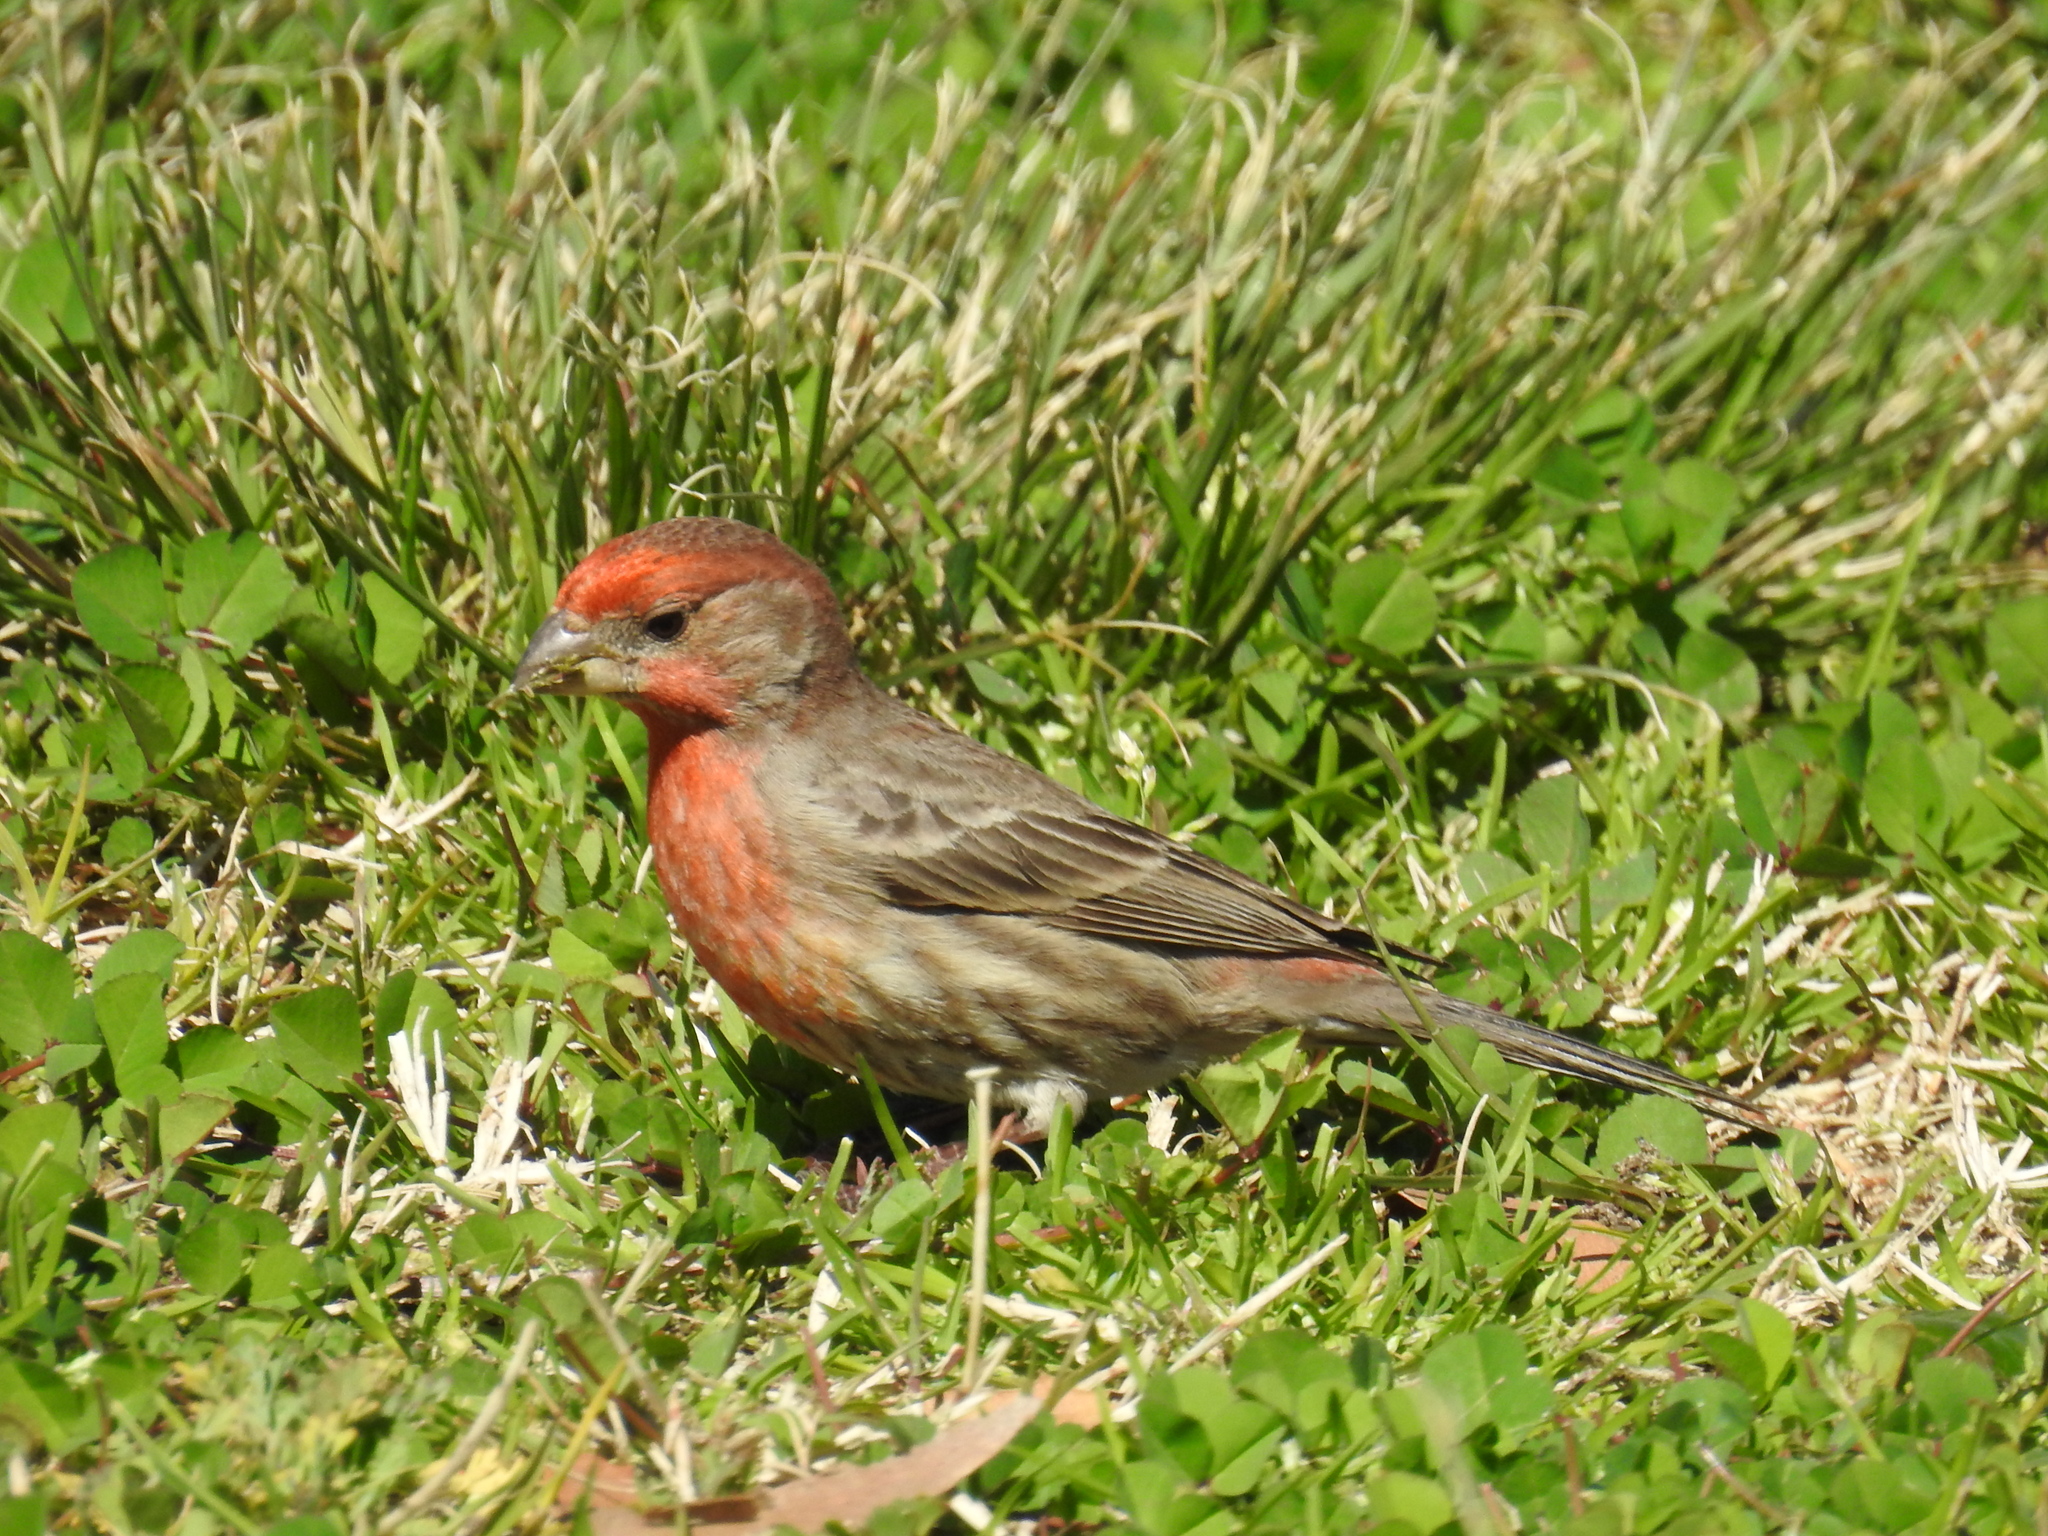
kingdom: Animalia
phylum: Chordata
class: Aves
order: Passeriformes
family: Fringillidae
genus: Haemorhous
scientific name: Haemorhous mexicanus
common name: House finch
